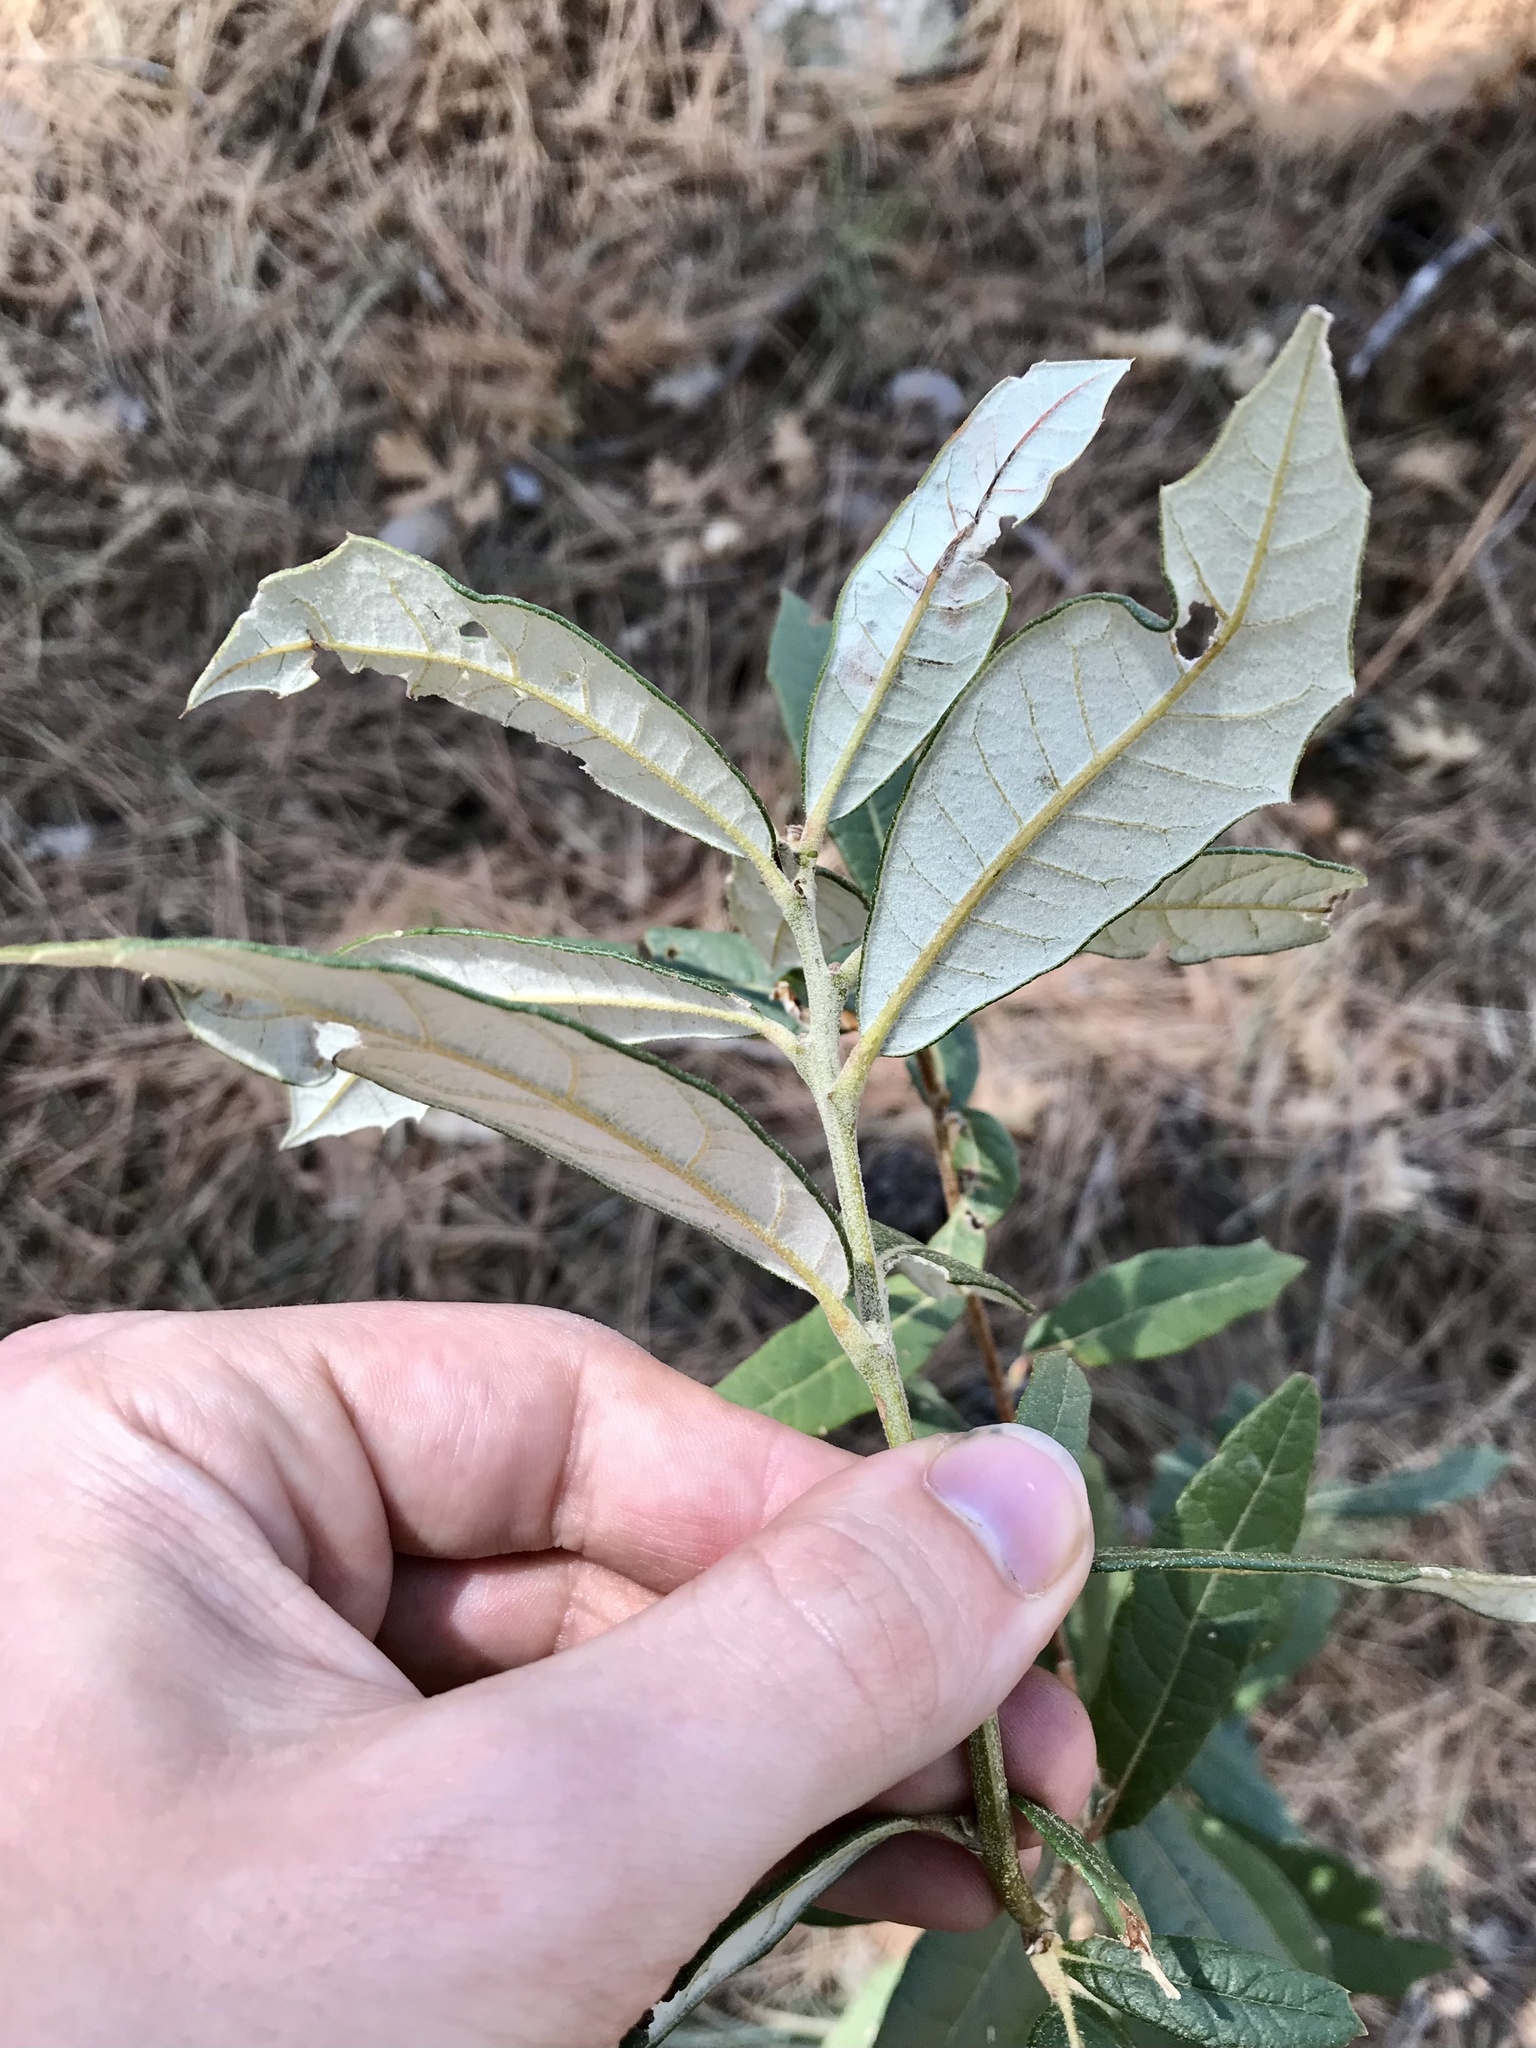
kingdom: Plantae
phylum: Tracheophyta
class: Magnoliopsida
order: Fagales
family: Fagaceae
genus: Quercus
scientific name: Quercus hypoleucoides
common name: Silverleaf oak
